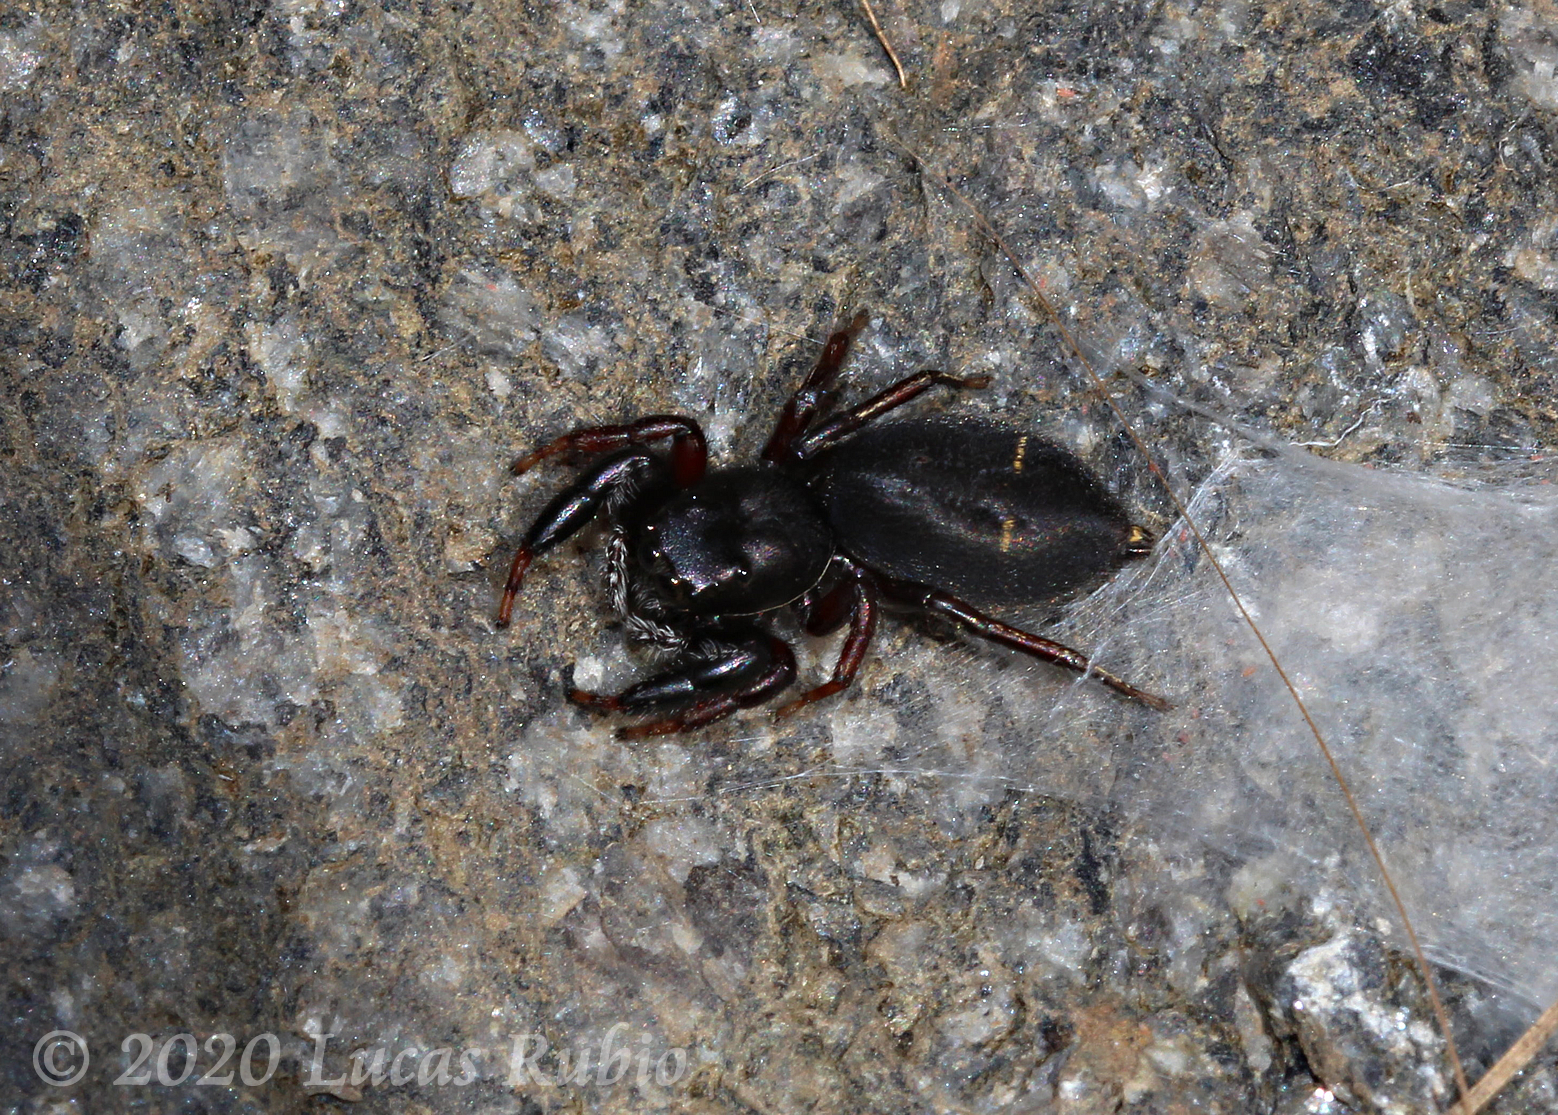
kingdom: Animalia
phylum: Arthropoda
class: Arachnida
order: Araneae
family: Salticidae
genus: Breda
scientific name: Breda tristis
